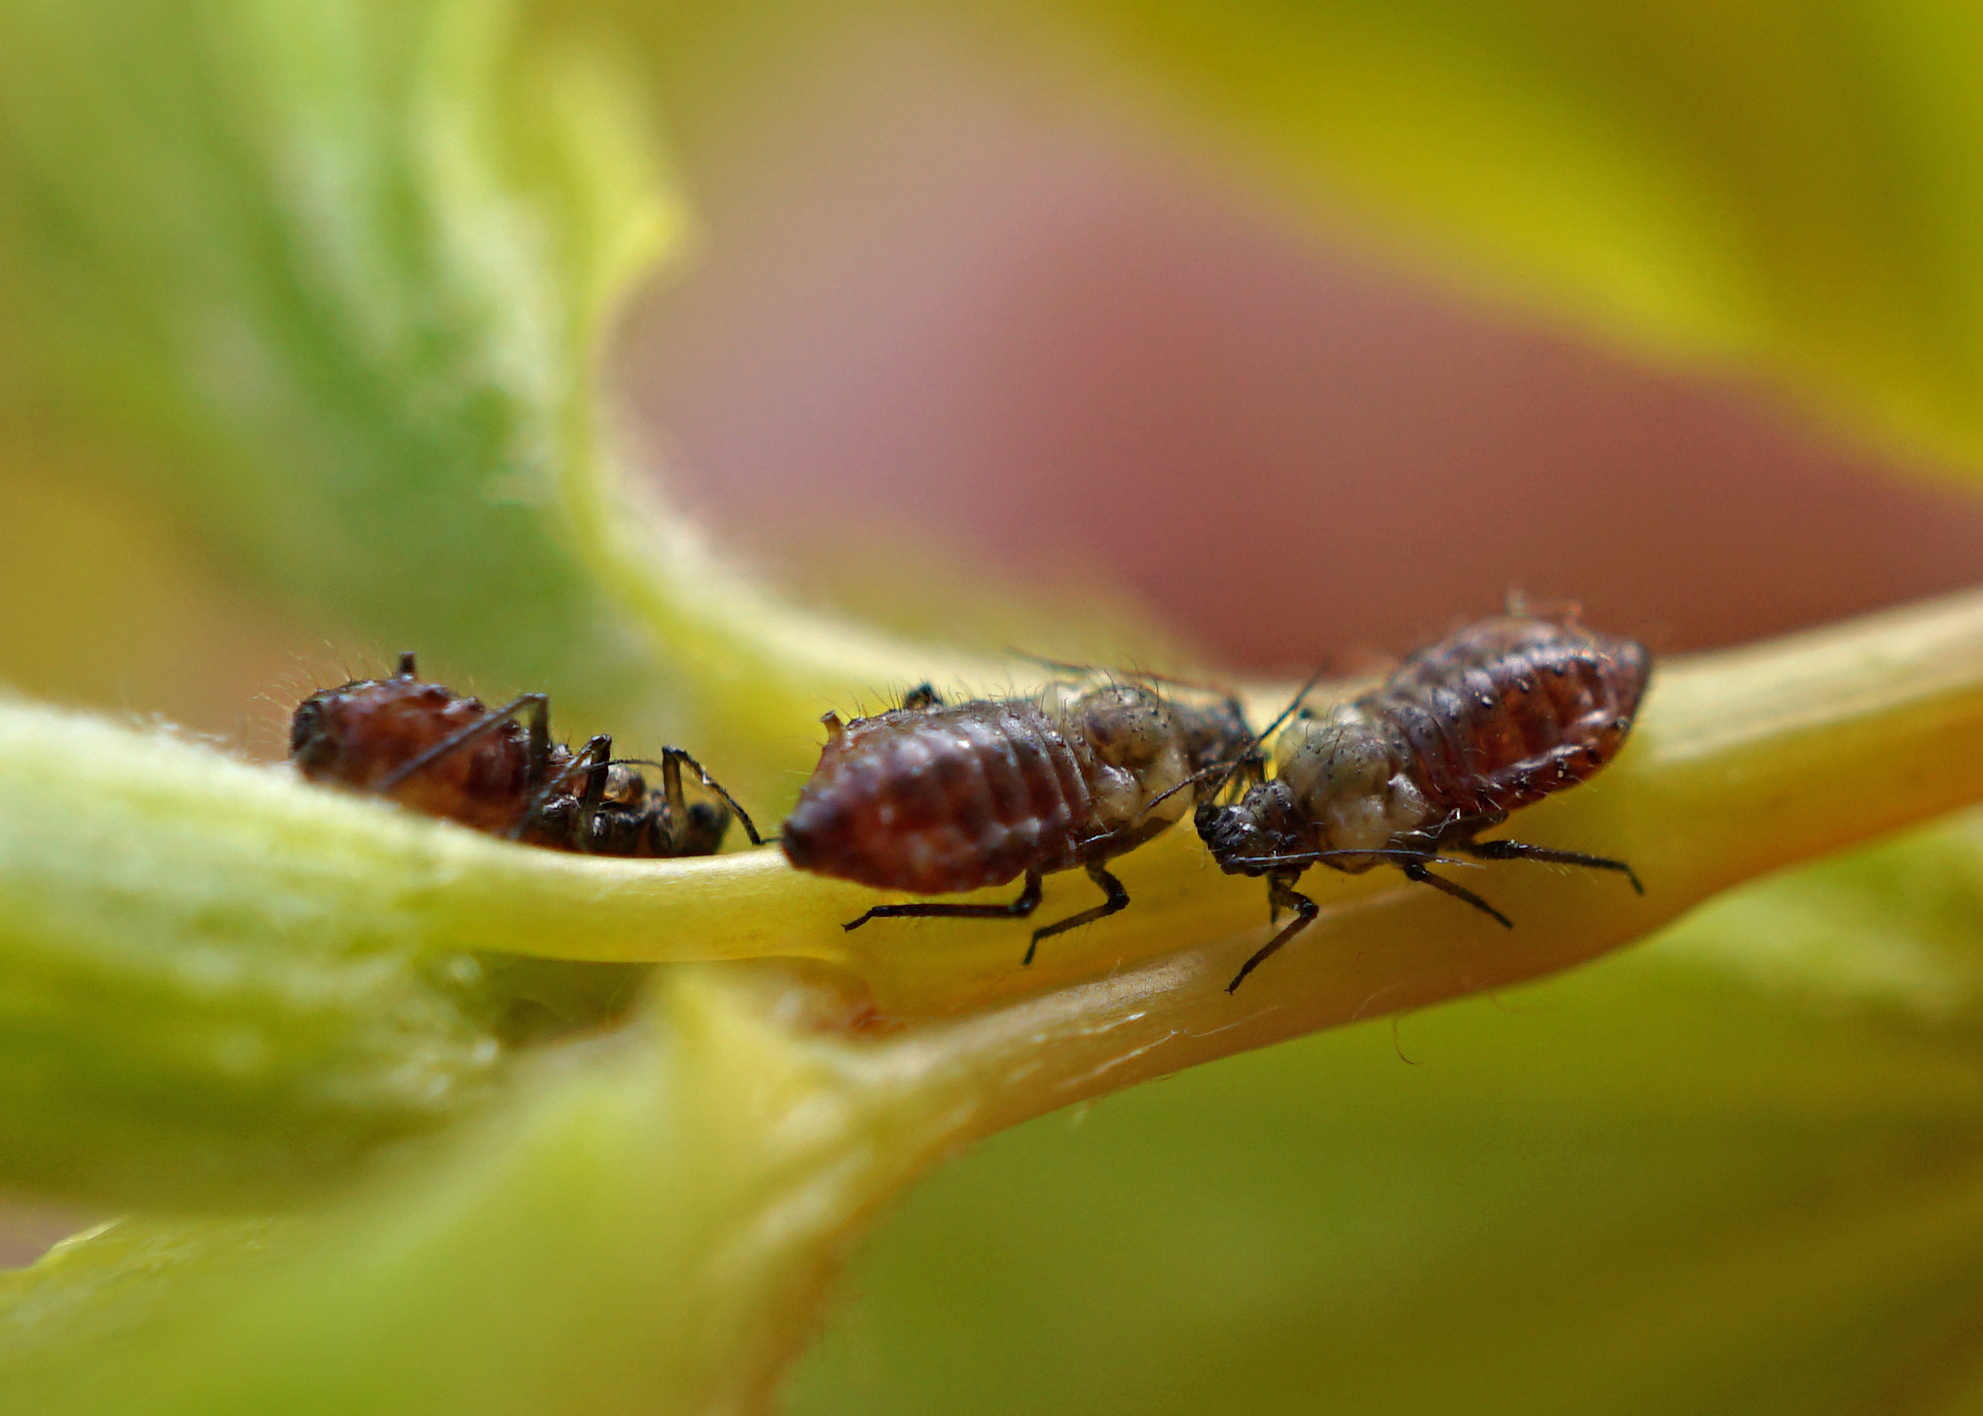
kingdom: Animalia
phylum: Arthropoda
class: Insecta
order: Hemiptera
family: Aphididae
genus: Periphyllus
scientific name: Periphyllus californiensis
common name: California maple aphid
